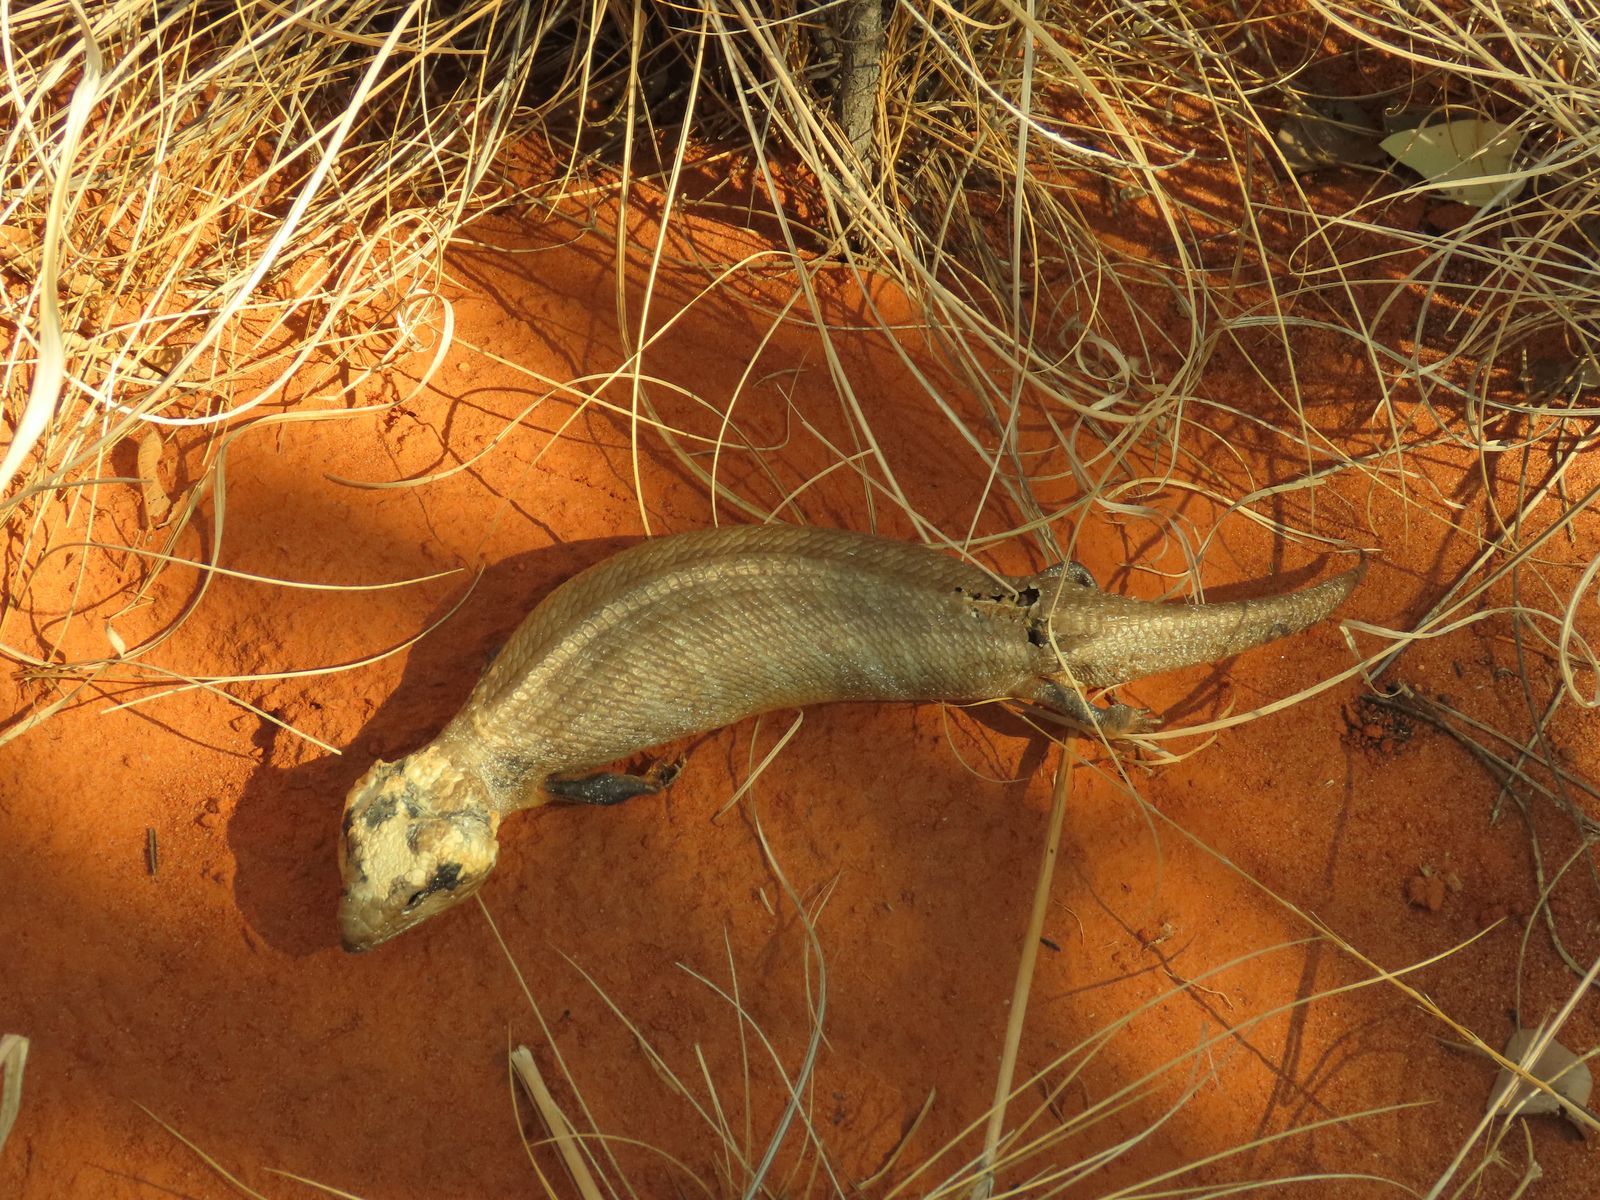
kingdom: Animalia
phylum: Chordata
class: Squamata
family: Scincidae
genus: Tiliqua
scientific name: Tiliqua multifasciata
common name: Centralian blue-tongued lizard
